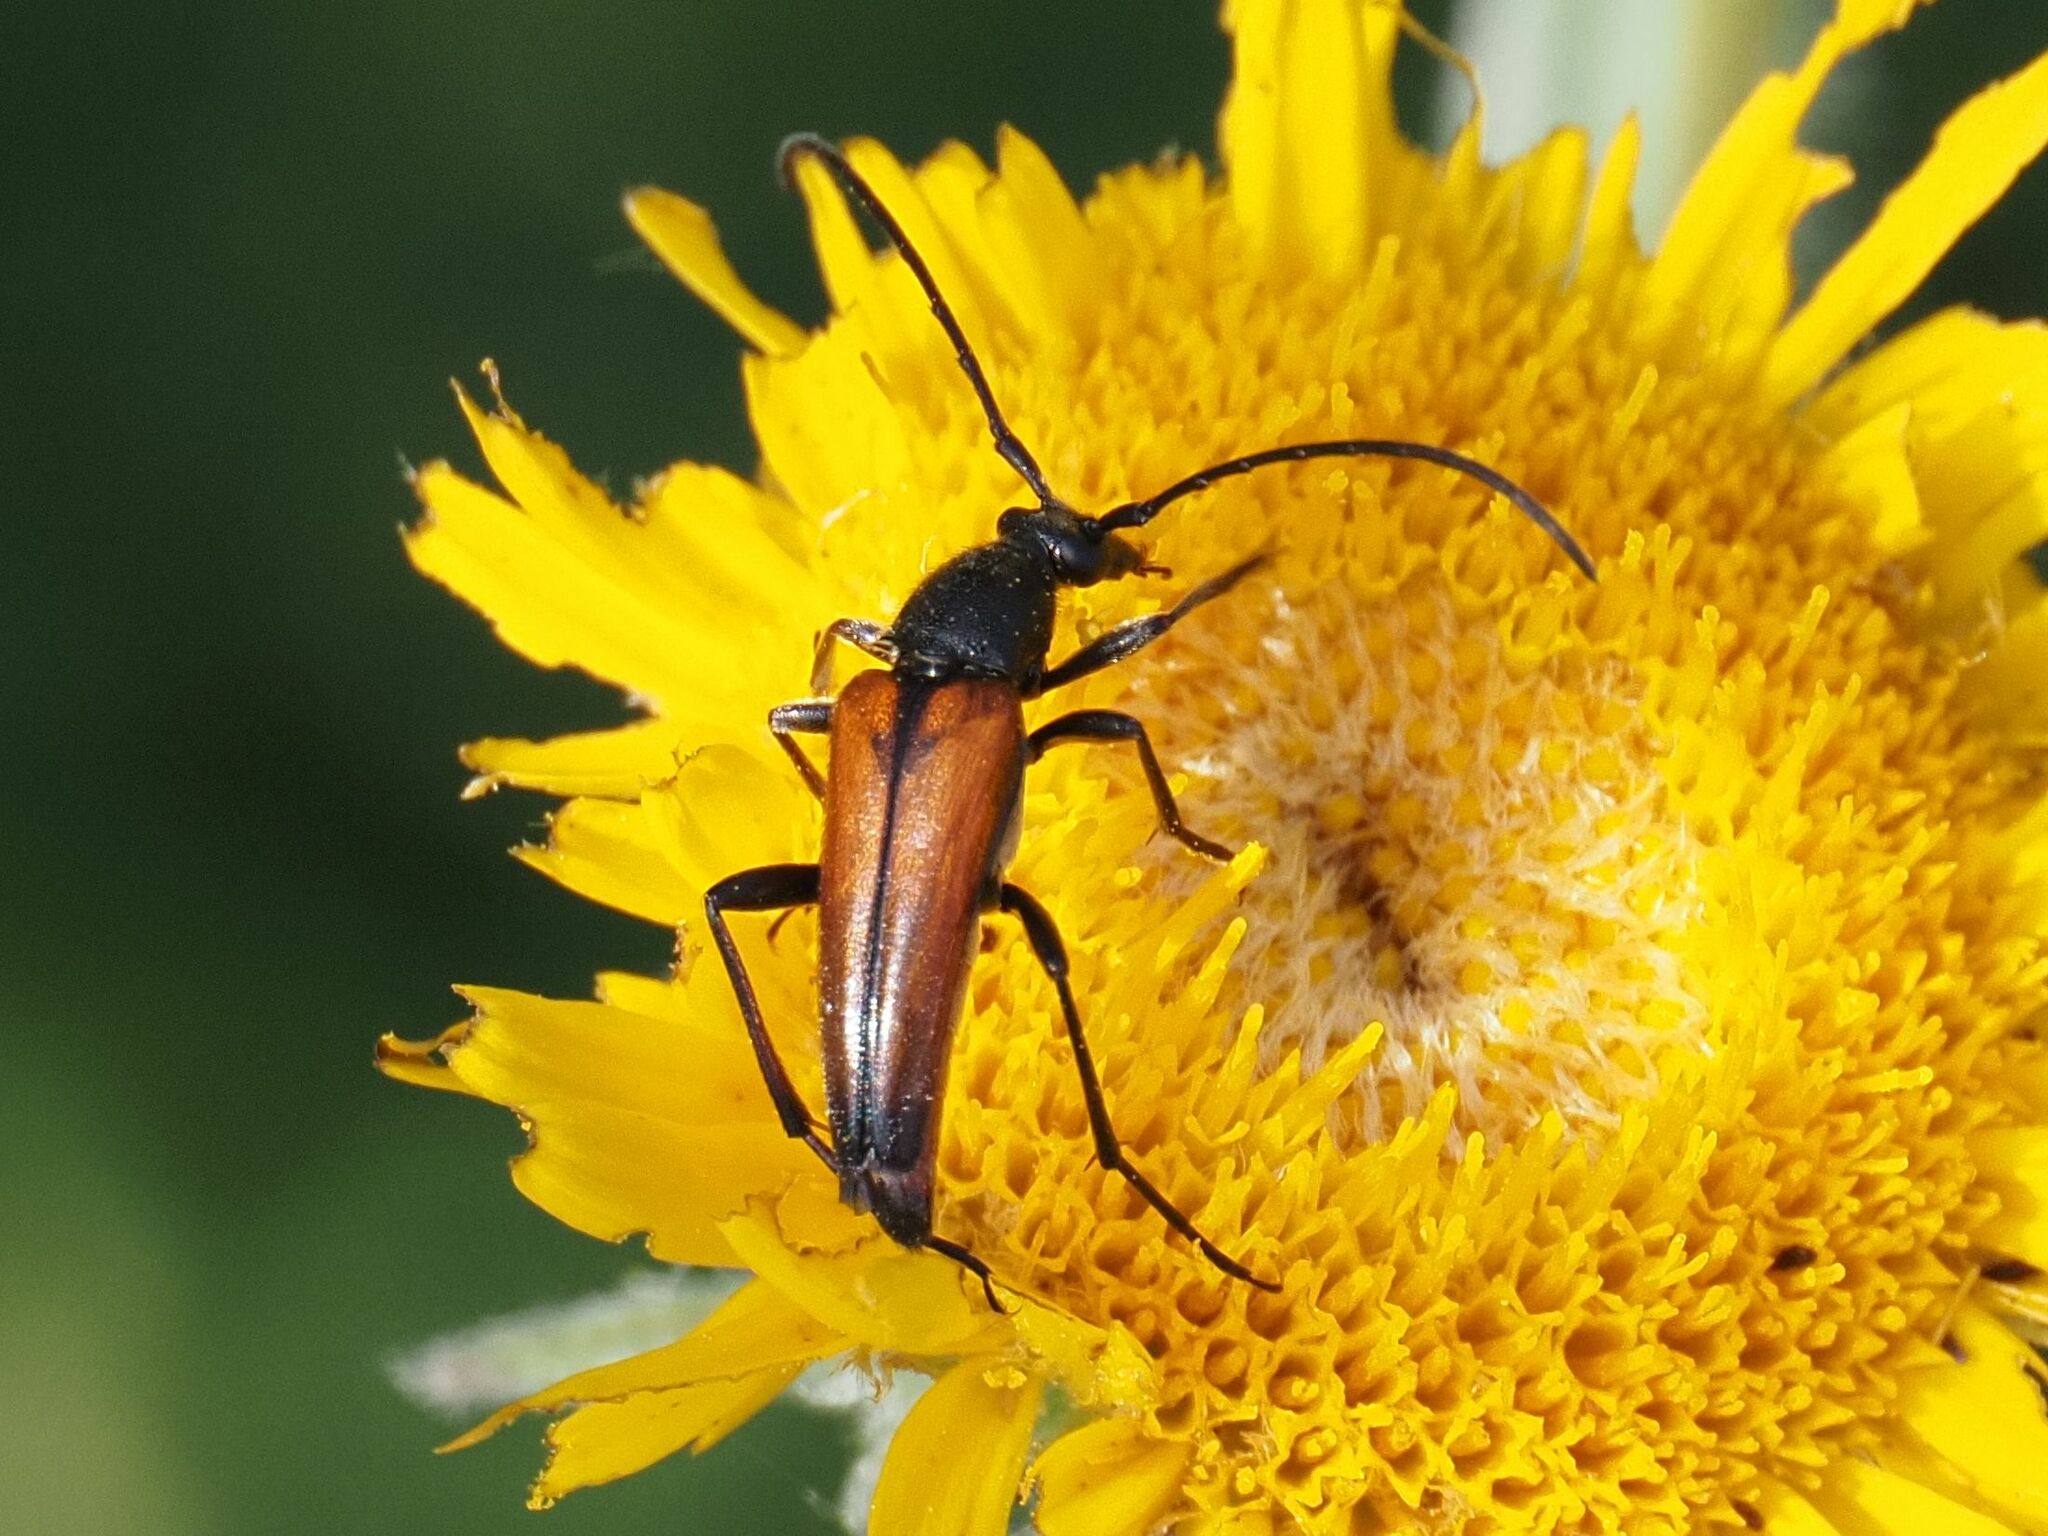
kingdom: Animalia
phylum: Arthropoda
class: Insecta
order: Coleoptera
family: Cerambycidae
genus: Stenurella
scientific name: Stenurella melanura
